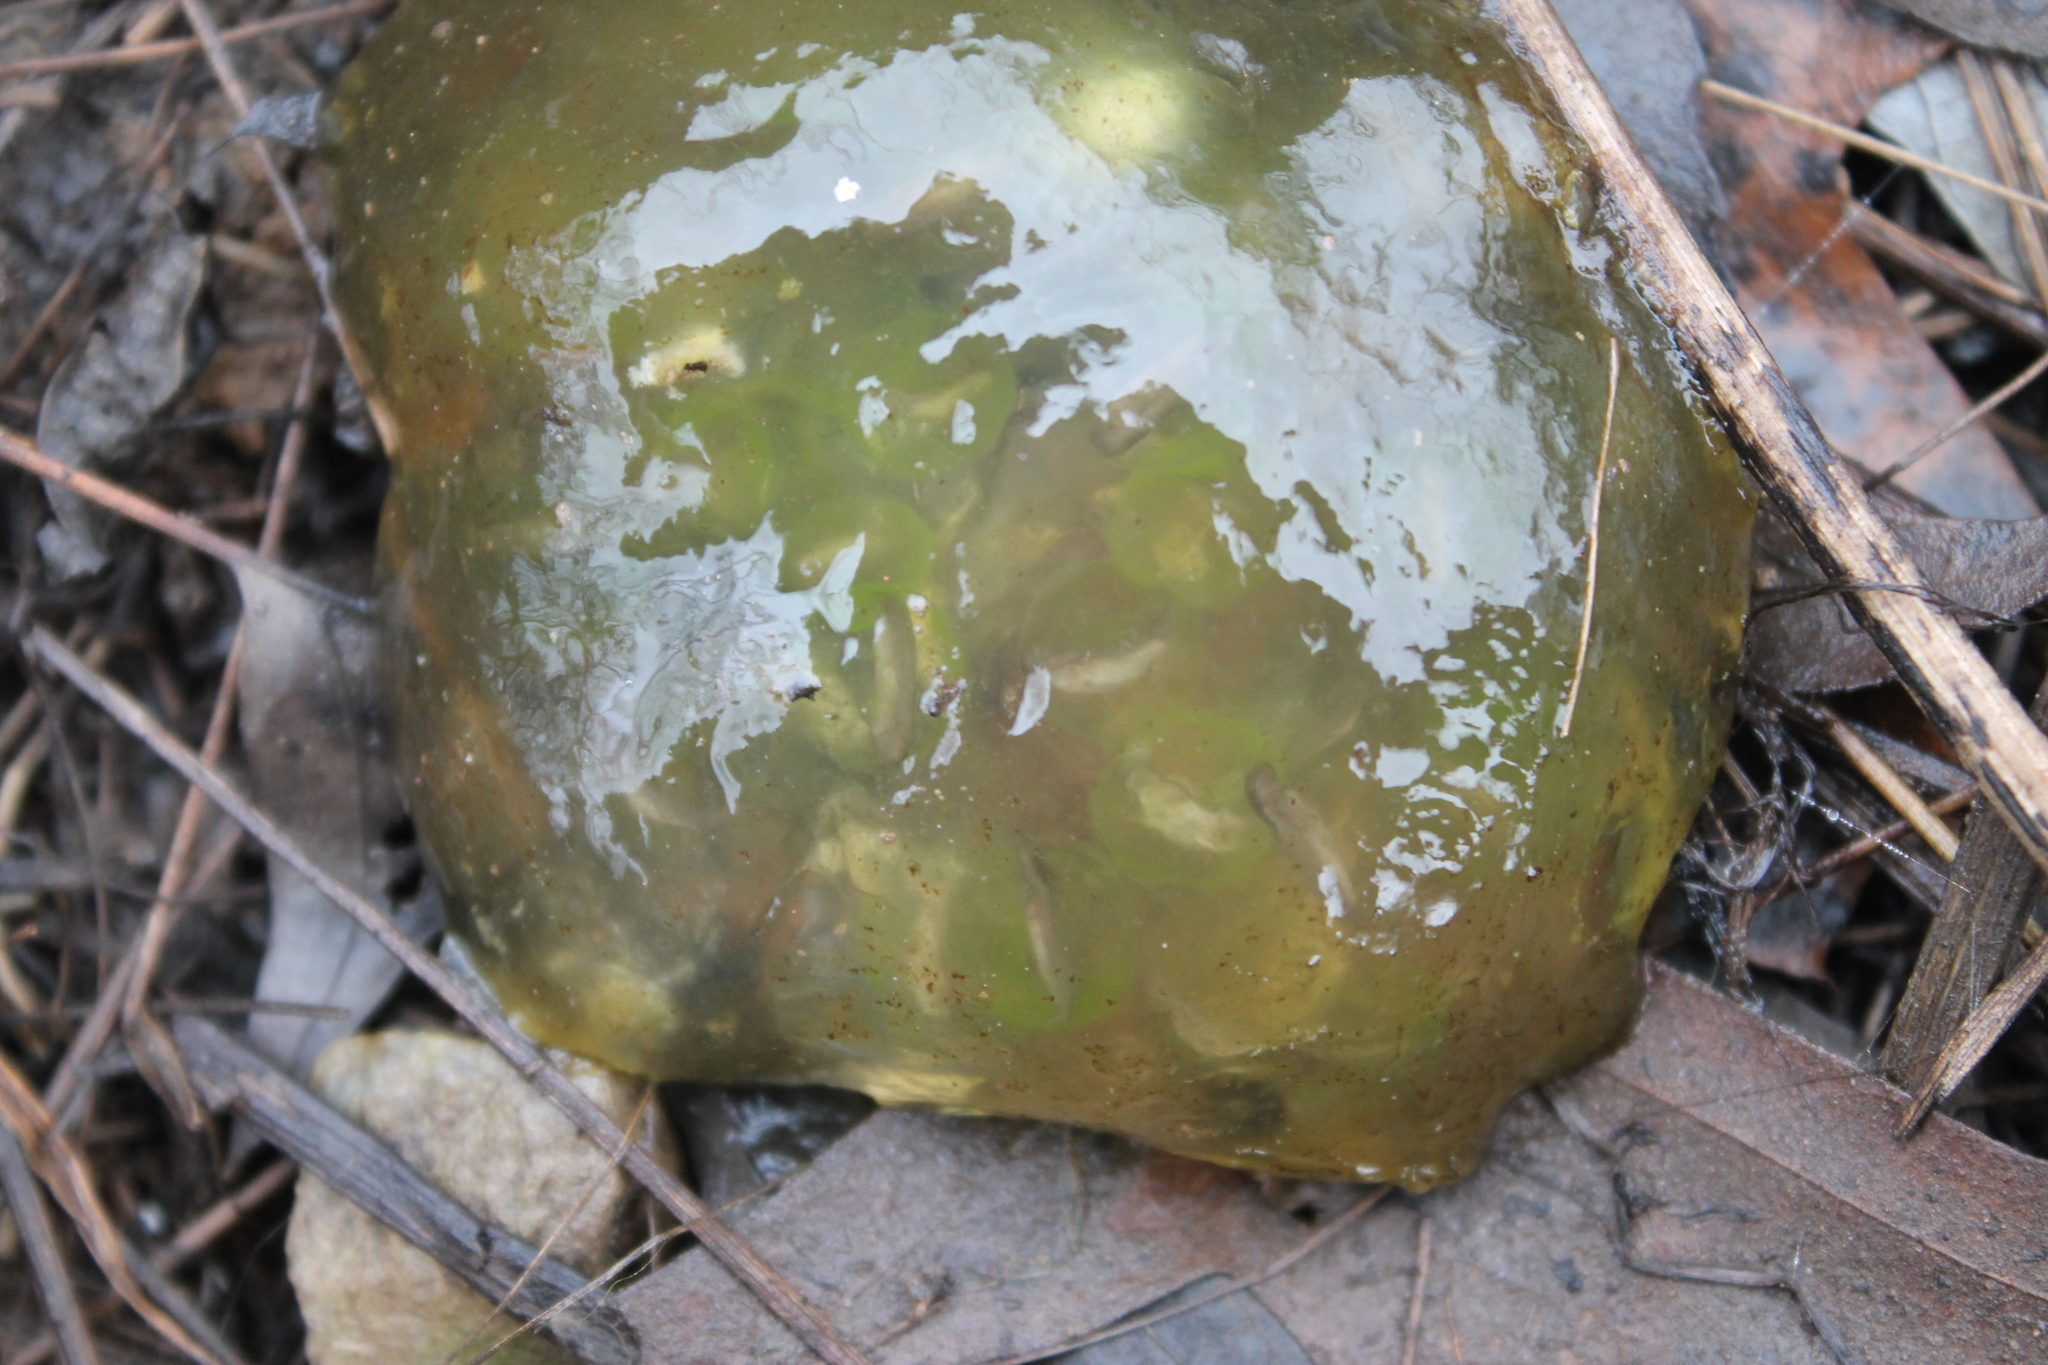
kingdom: Plantae
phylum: Chlorophyta
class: Chlorophyceae
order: Chlamydomonadales
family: Chlorococcaceae
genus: Oophila
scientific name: Oophila amblystomatis
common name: Salamander algae
